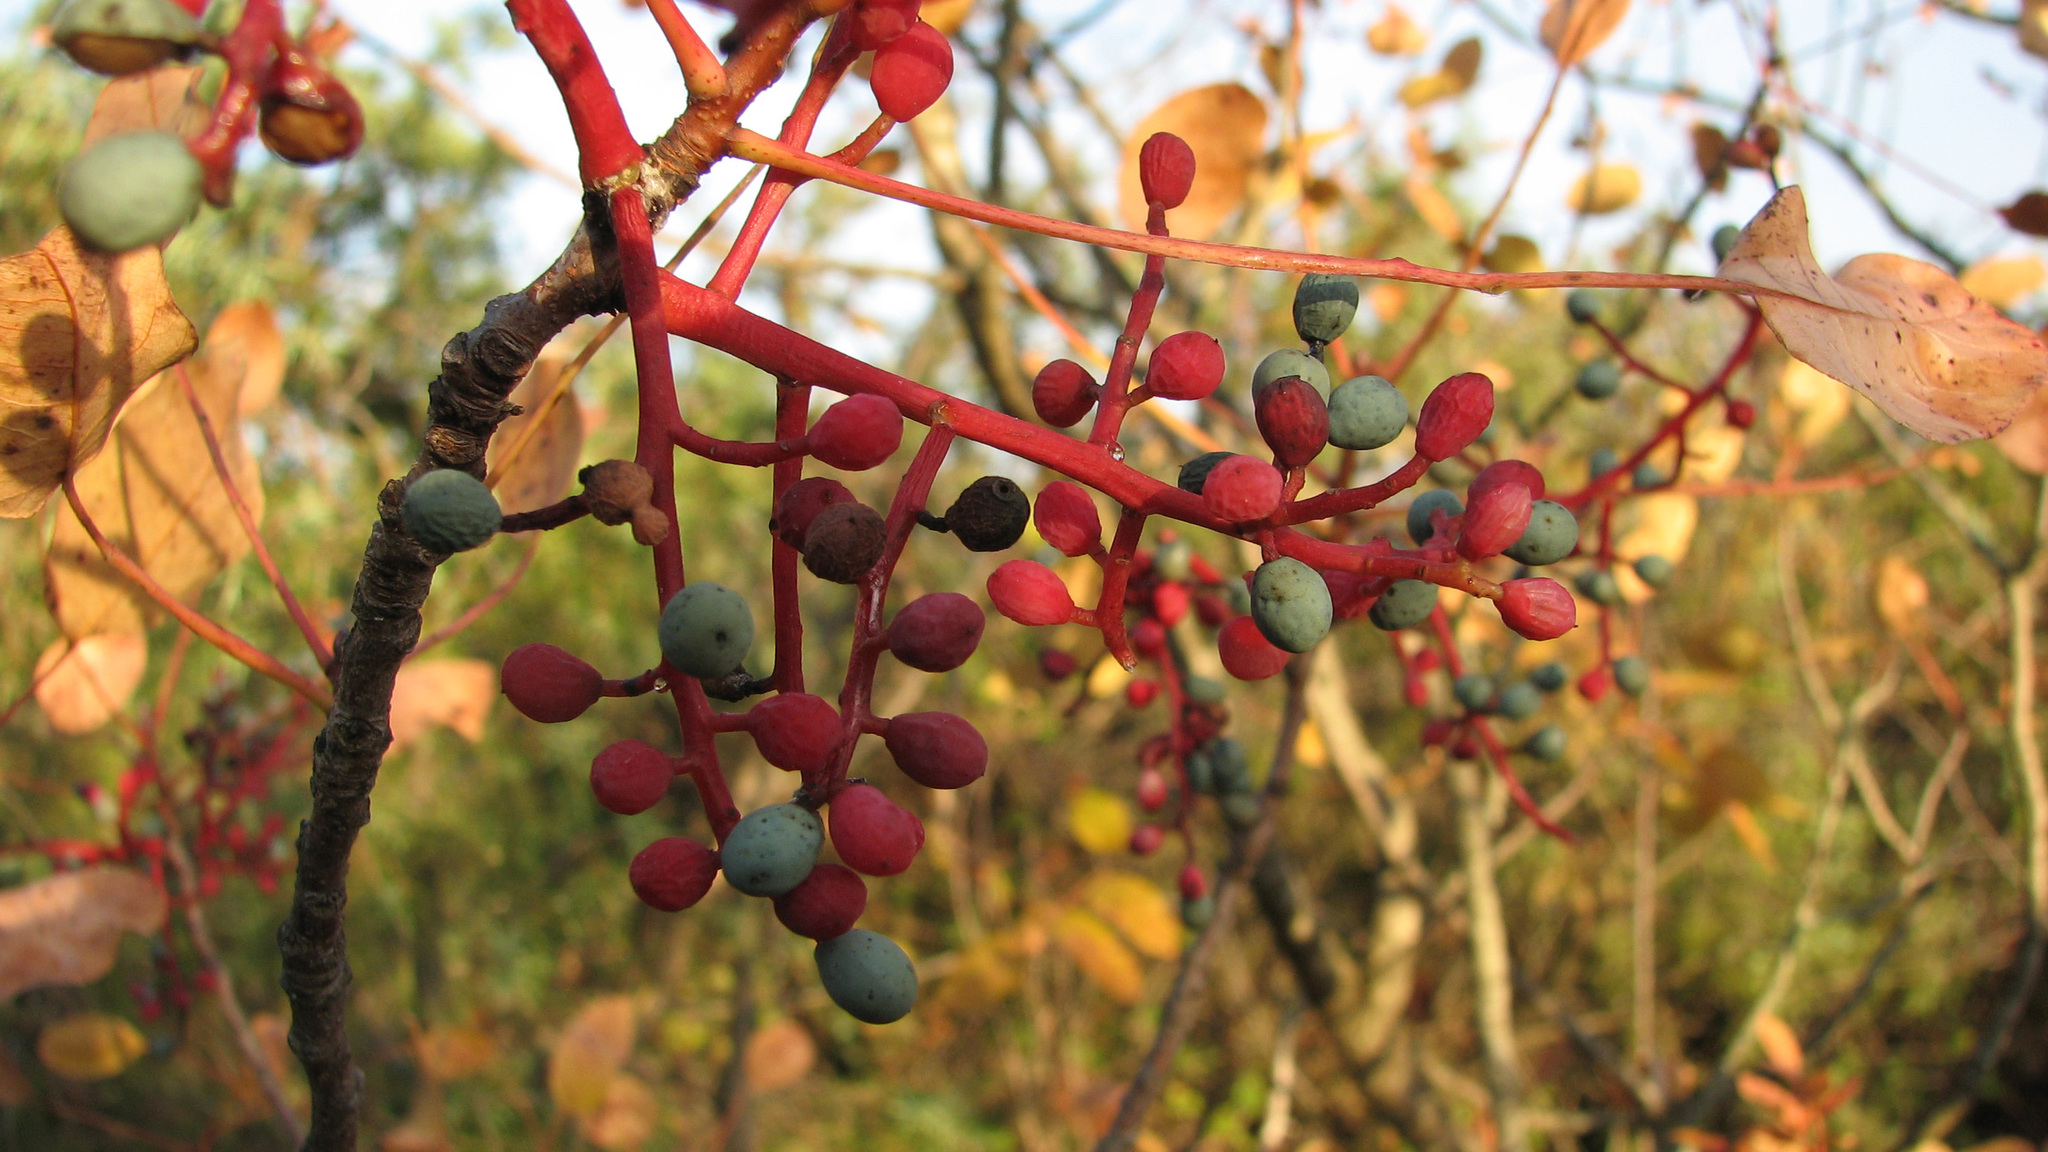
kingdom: Plantae
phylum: Tracheophyta
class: Magnoliopsida
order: Sapindales
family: Anacardiaceae
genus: Pistacia
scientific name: Pistacia terebinthus
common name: Terebinth
